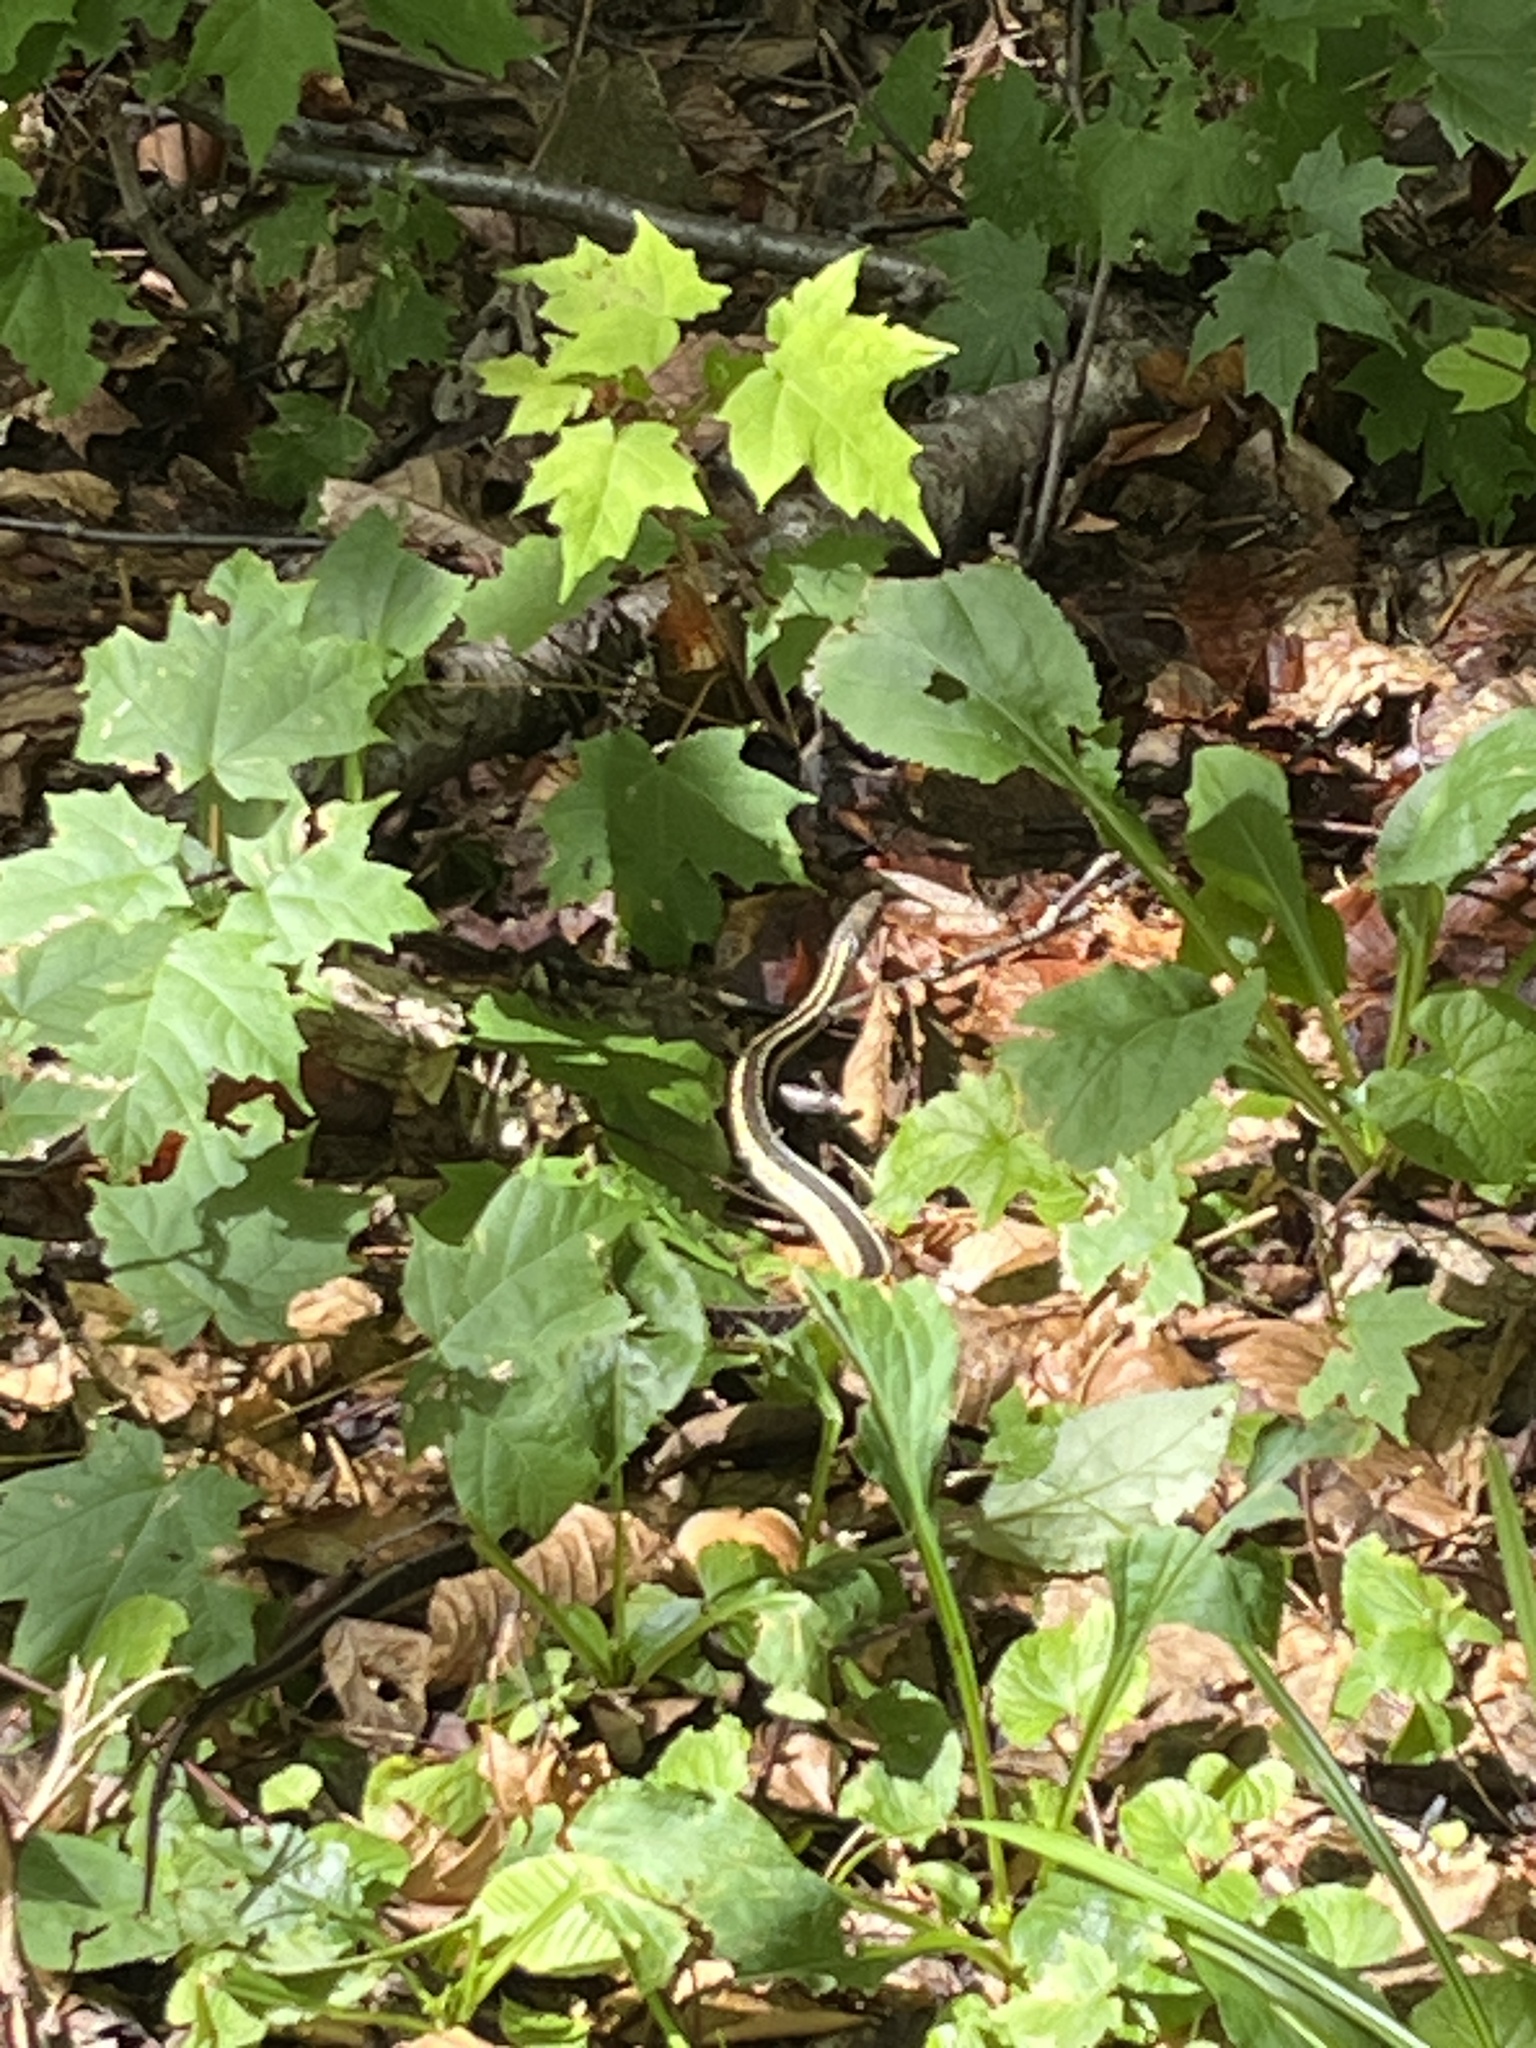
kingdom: Animalia
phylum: Chordata
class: Squamata
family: Colubridae
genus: Thamnophis
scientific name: Thamnophis sirtalis
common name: Common garter snake
